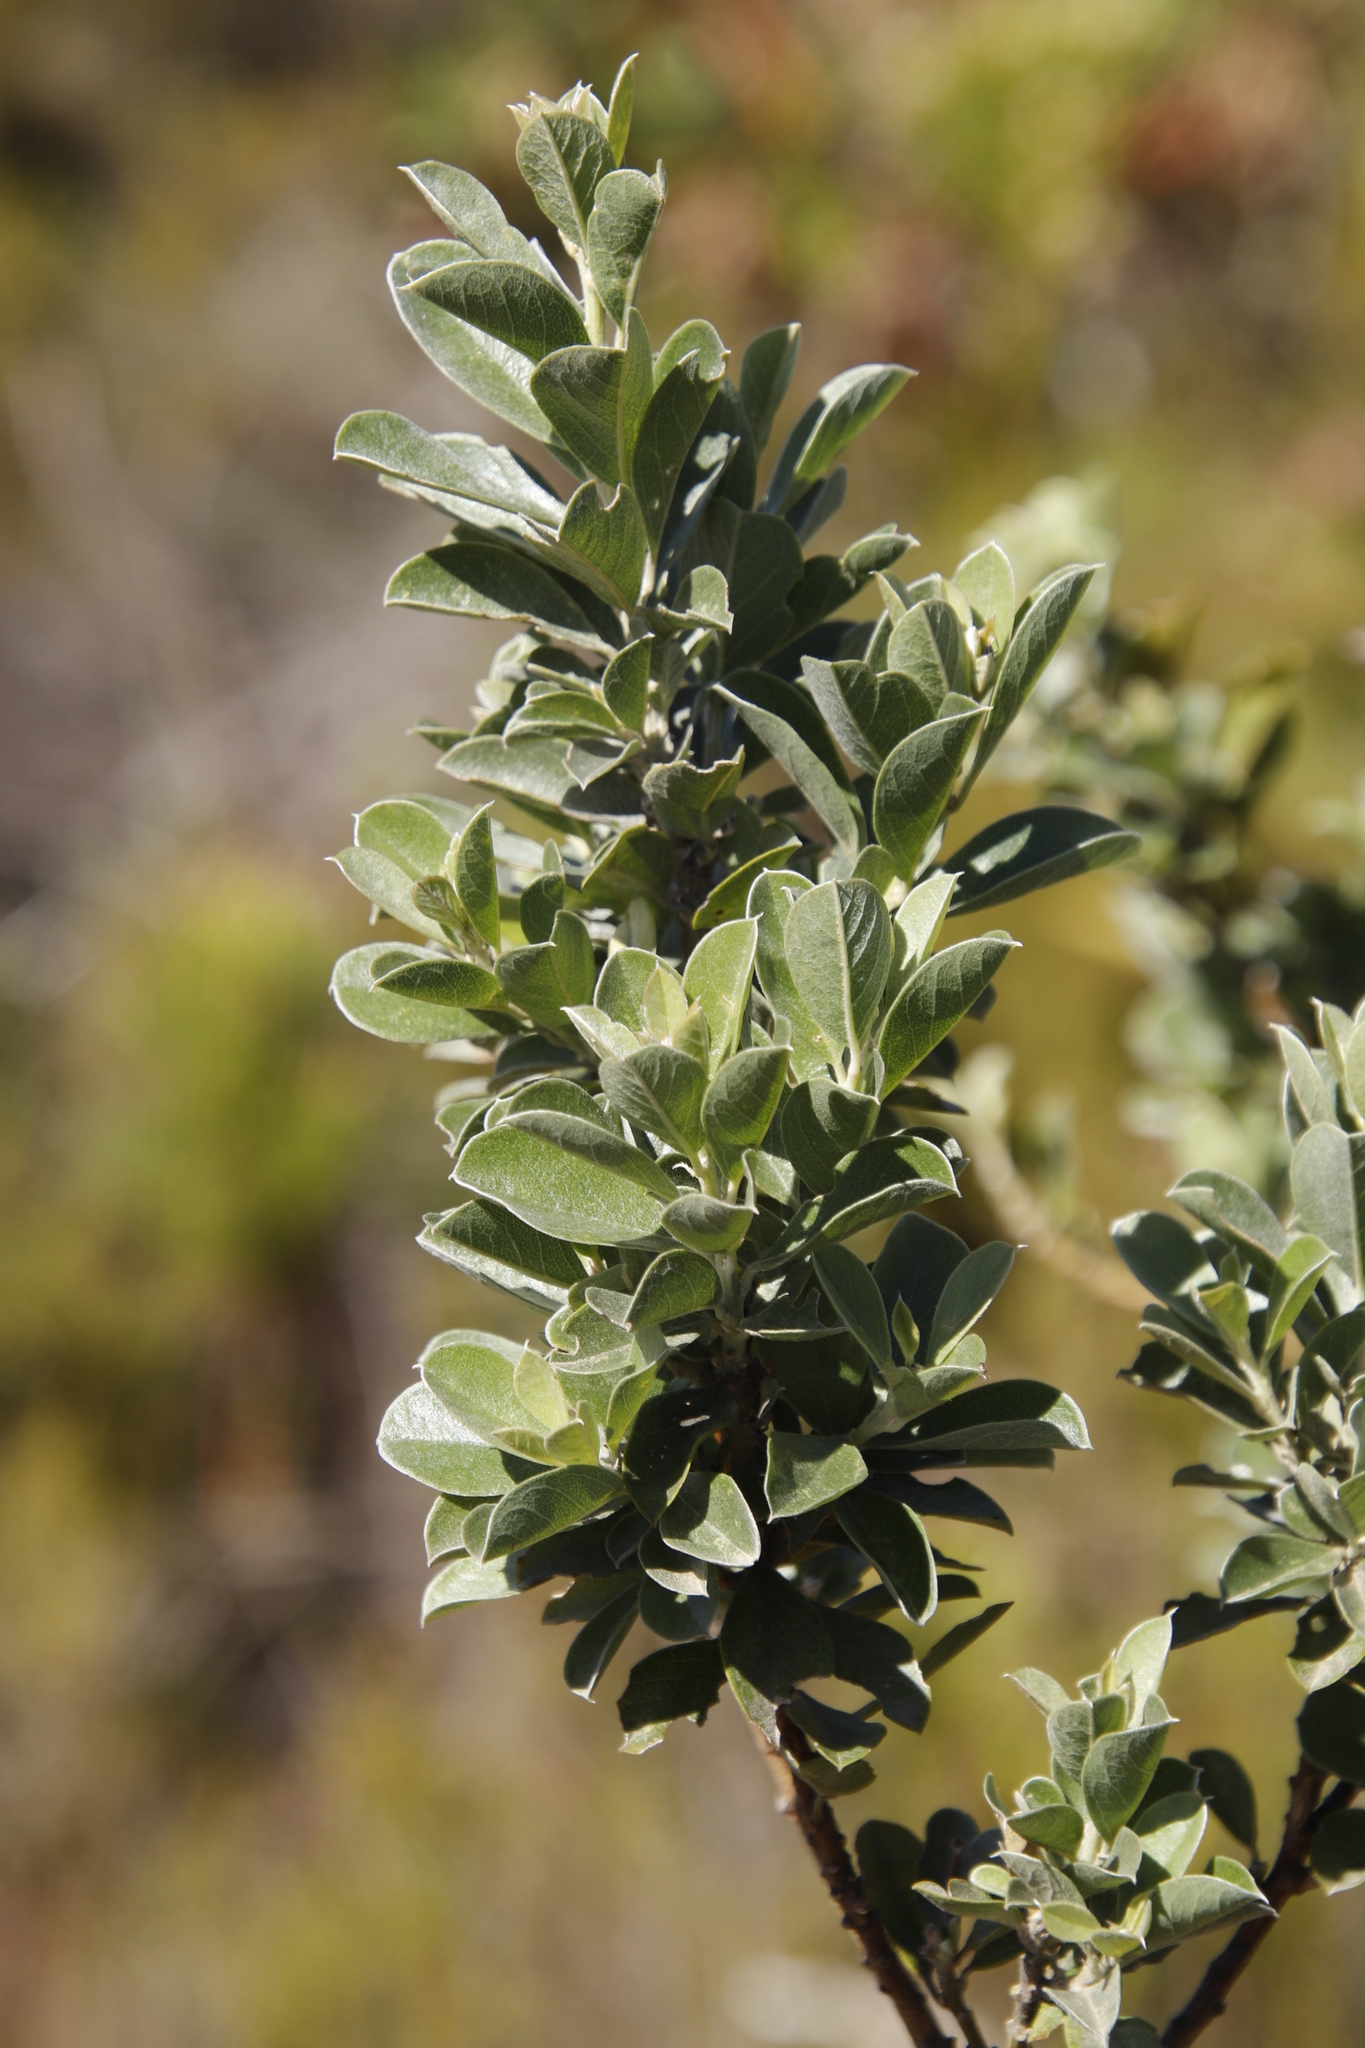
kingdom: Plantae
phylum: Tracheophyta
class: Magnoliopsida
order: Fabales
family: Fabaceae
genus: Podalyria
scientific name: Podalyria calyptrata
